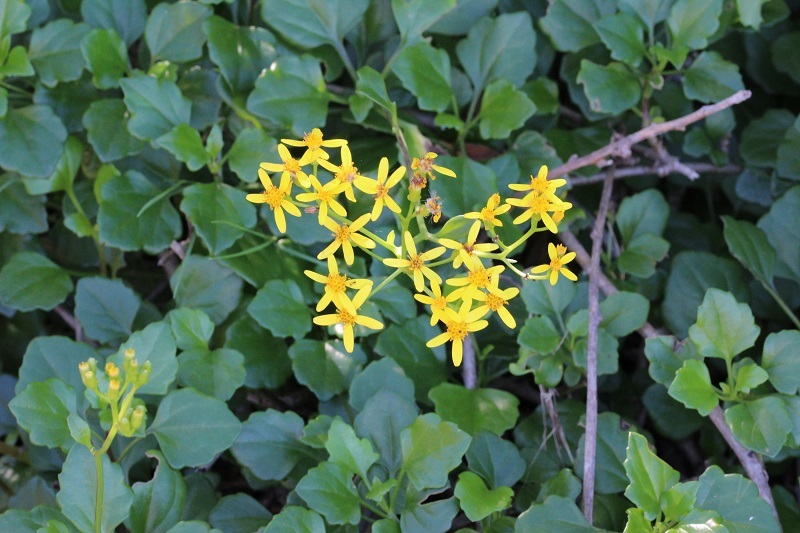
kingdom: Plantae
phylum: Tracheophyta
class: Magnoliopsida
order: Asterales
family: Asteraceae
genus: Senecio
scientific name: Senecio angulatus
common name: Climbing groundsel
